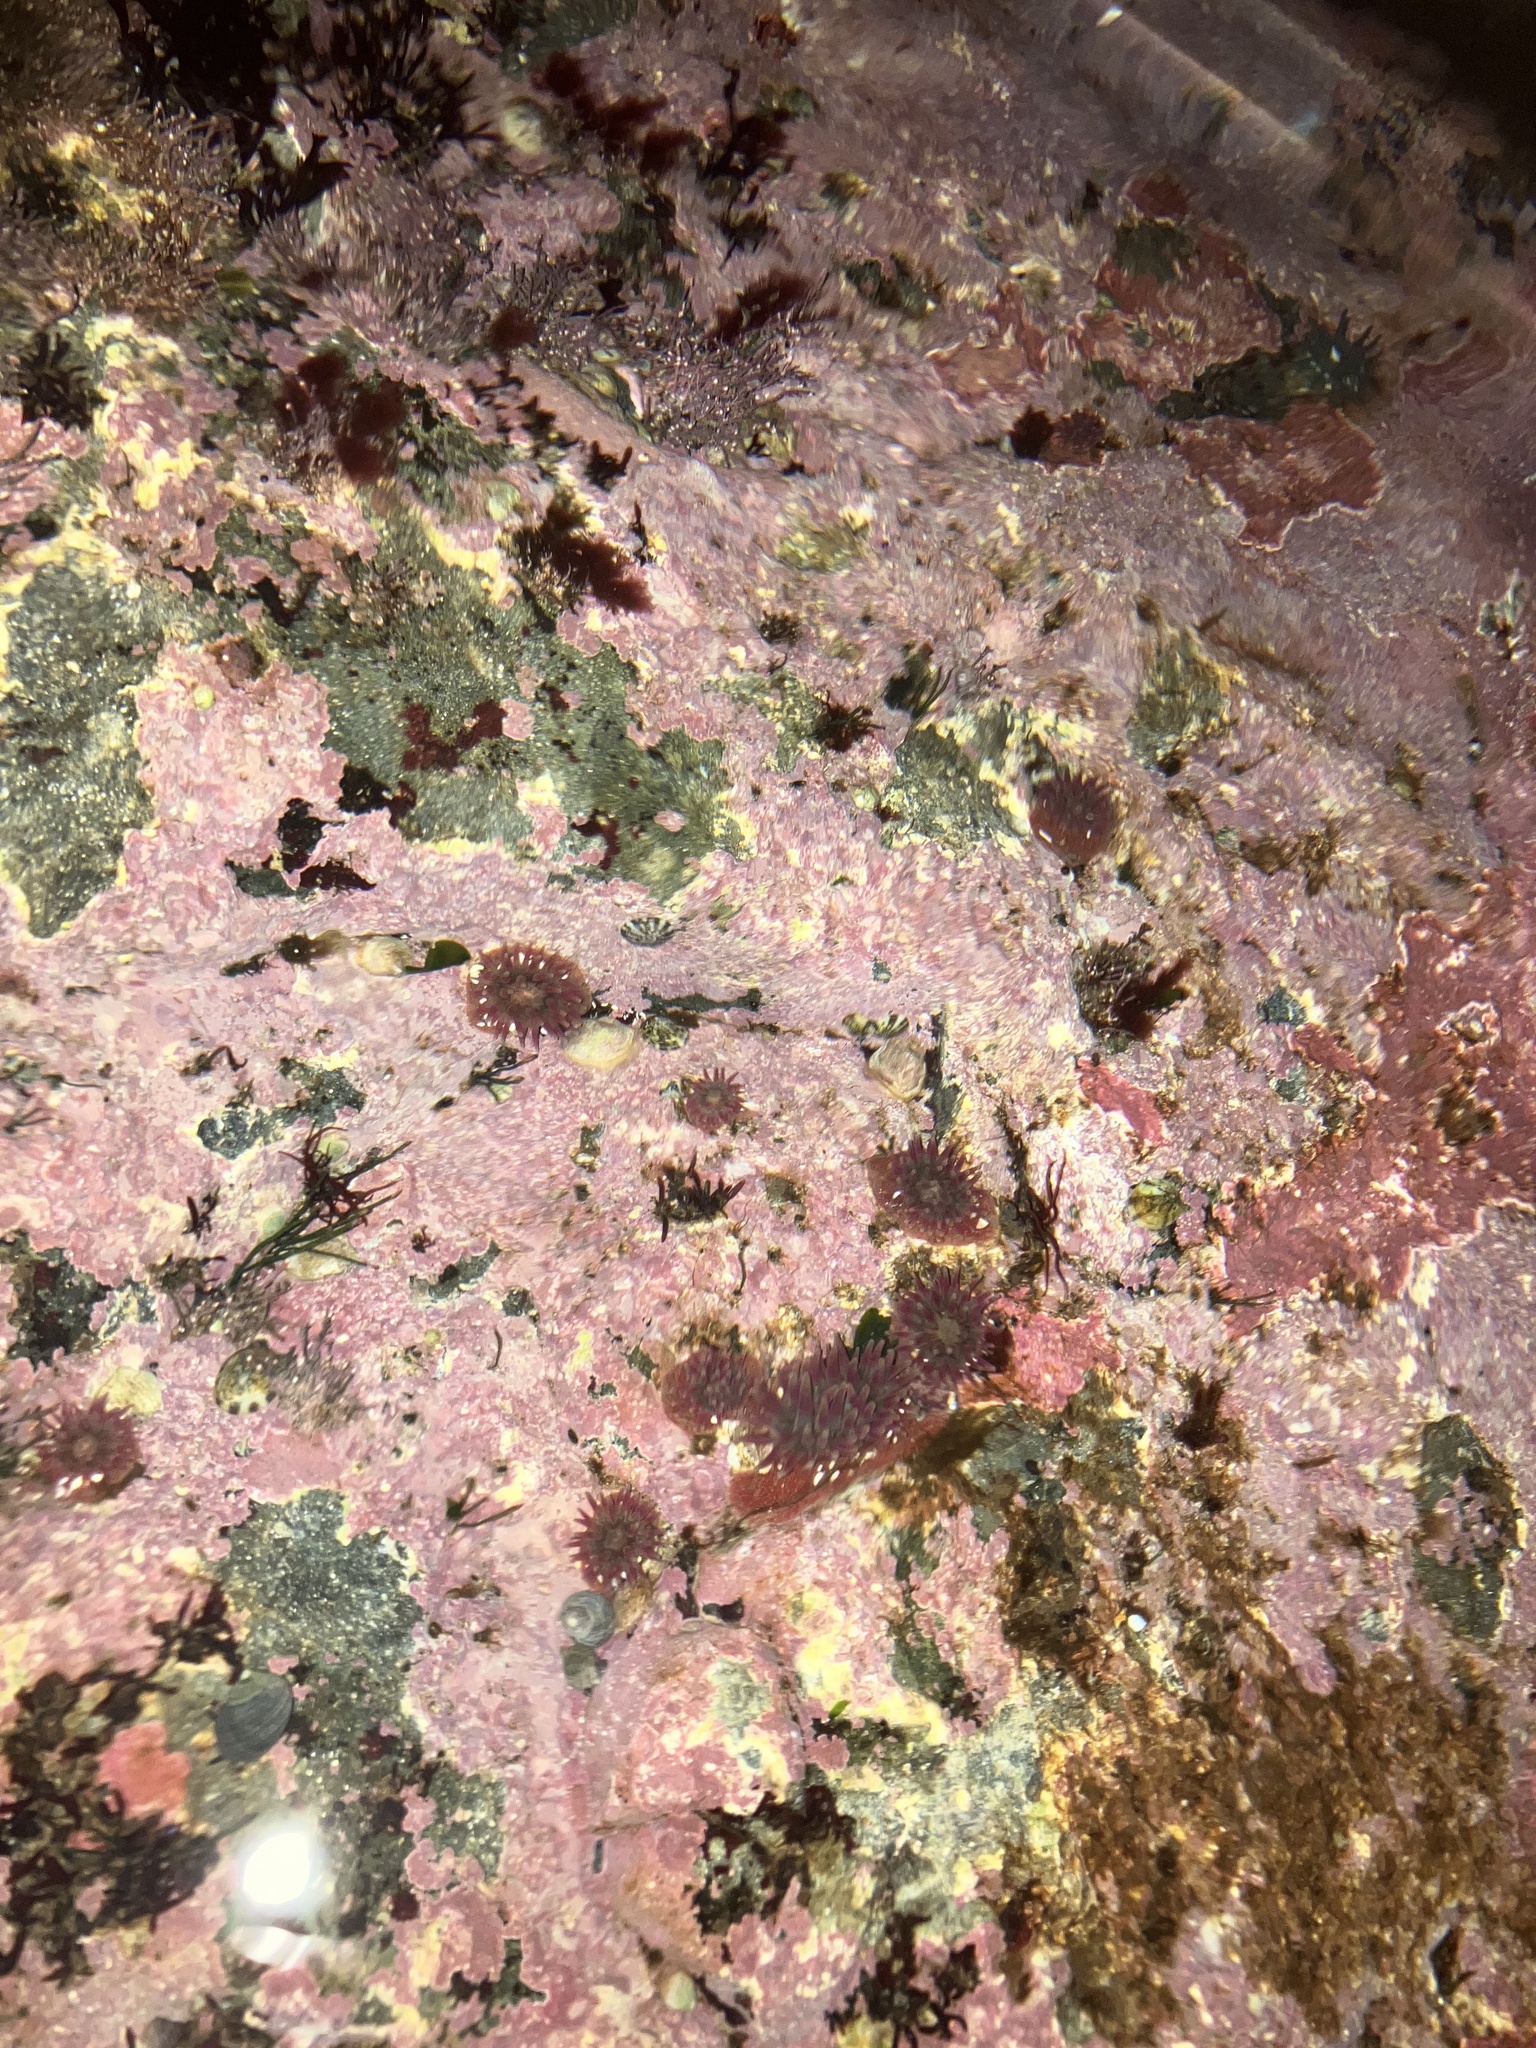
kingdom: Animalia
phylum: Cnidaria
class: Anthozoa
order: Actiniaria
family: Actiniidae
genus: Urticina
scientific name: Urticina crassicornis
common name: Mottled anemone
